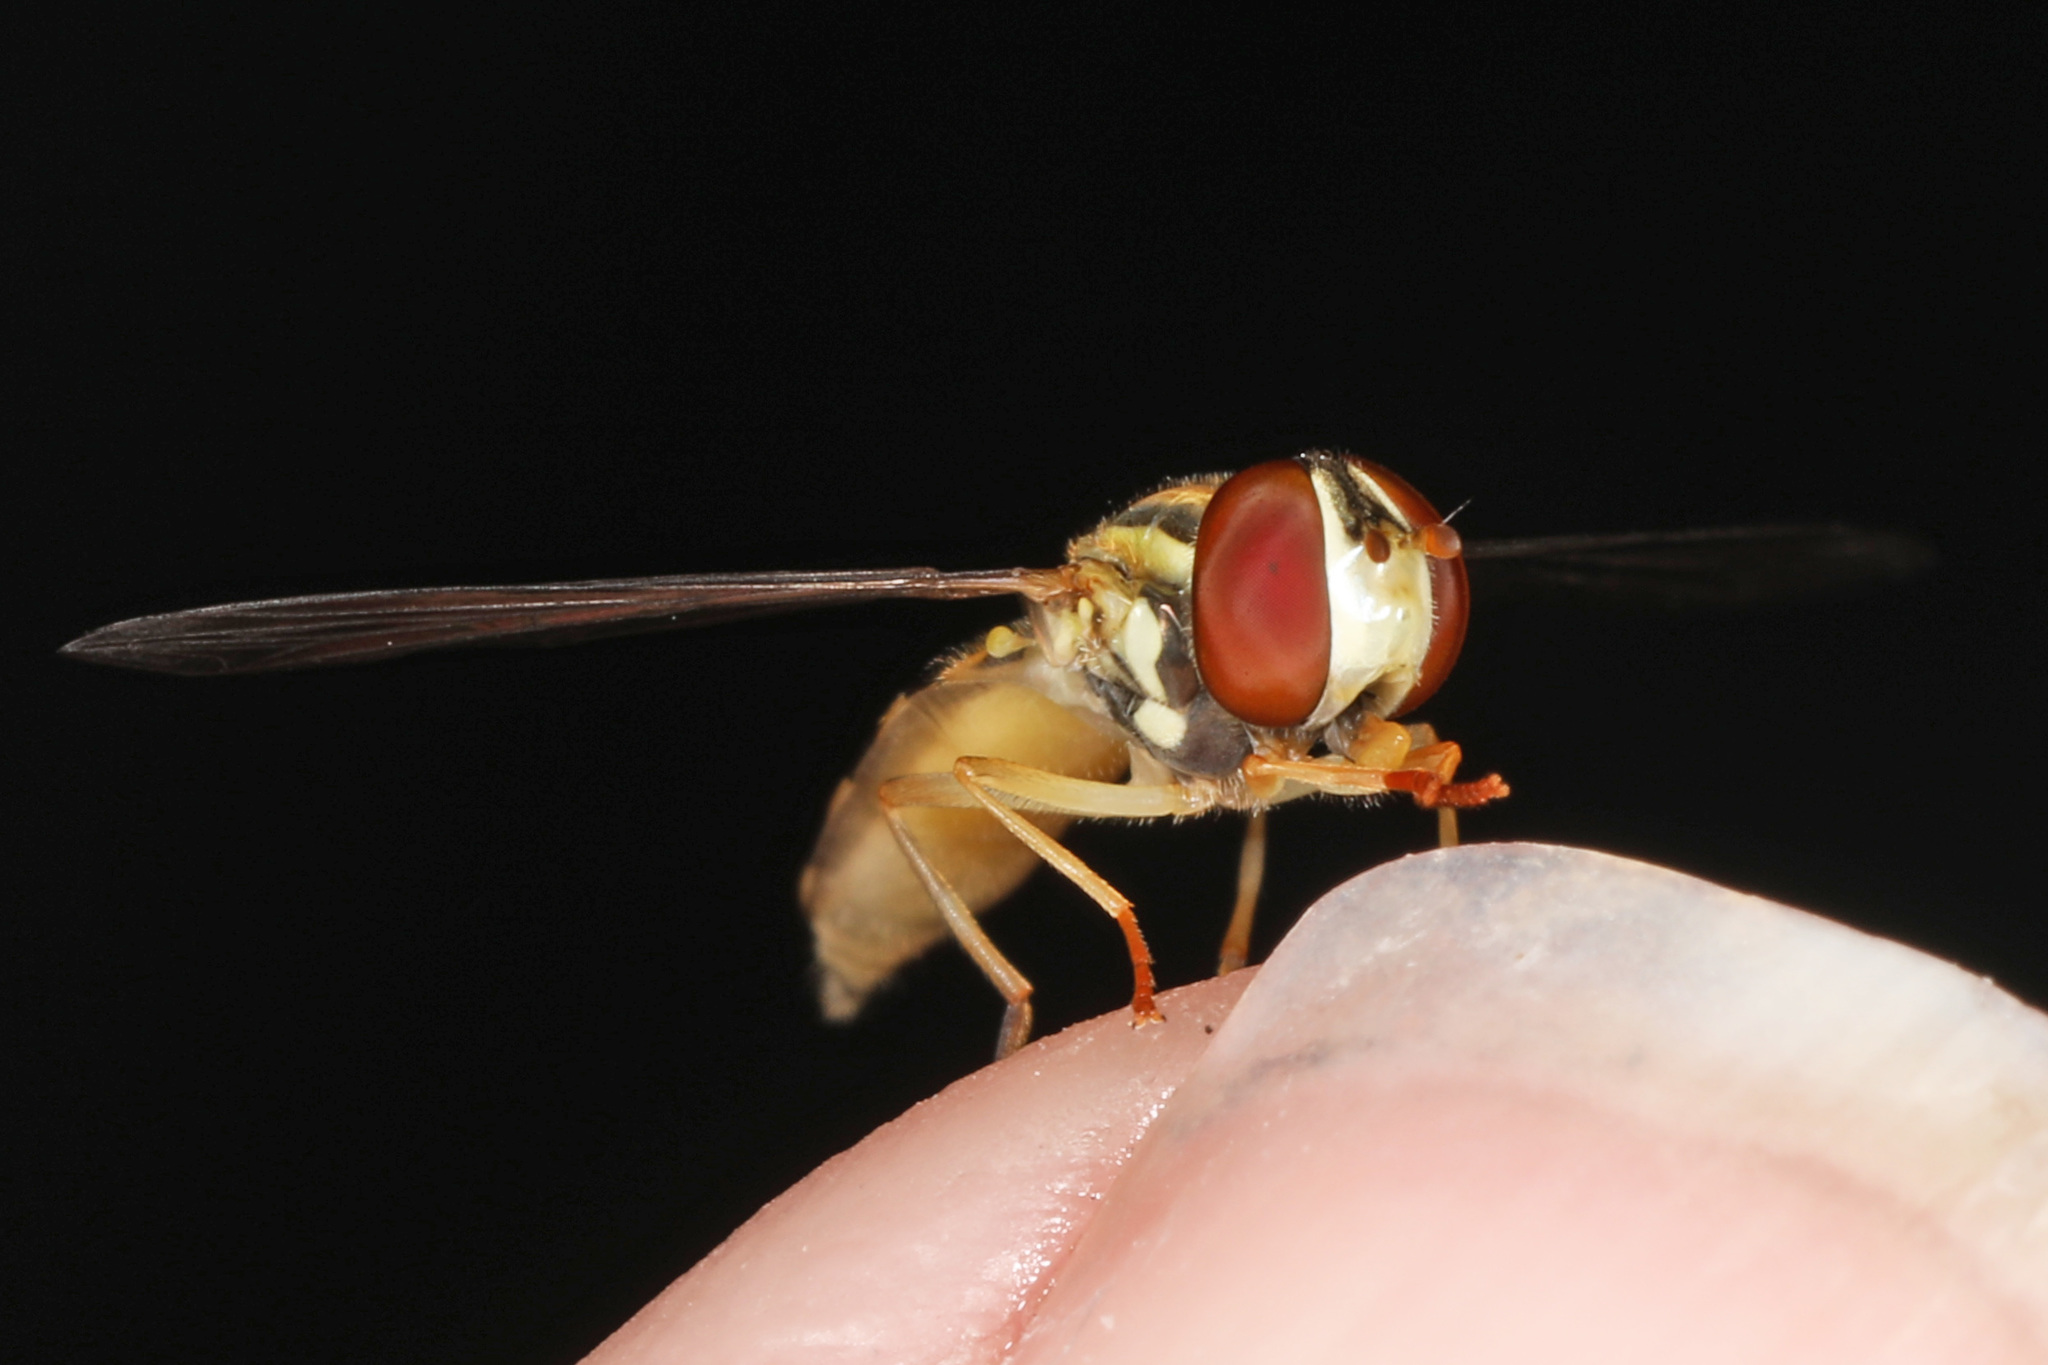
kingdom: Animalia
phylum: Arthropoda
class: Insecta
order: Diptera
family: Syrphidae
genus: Toxomerus
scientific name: Toxomerus
